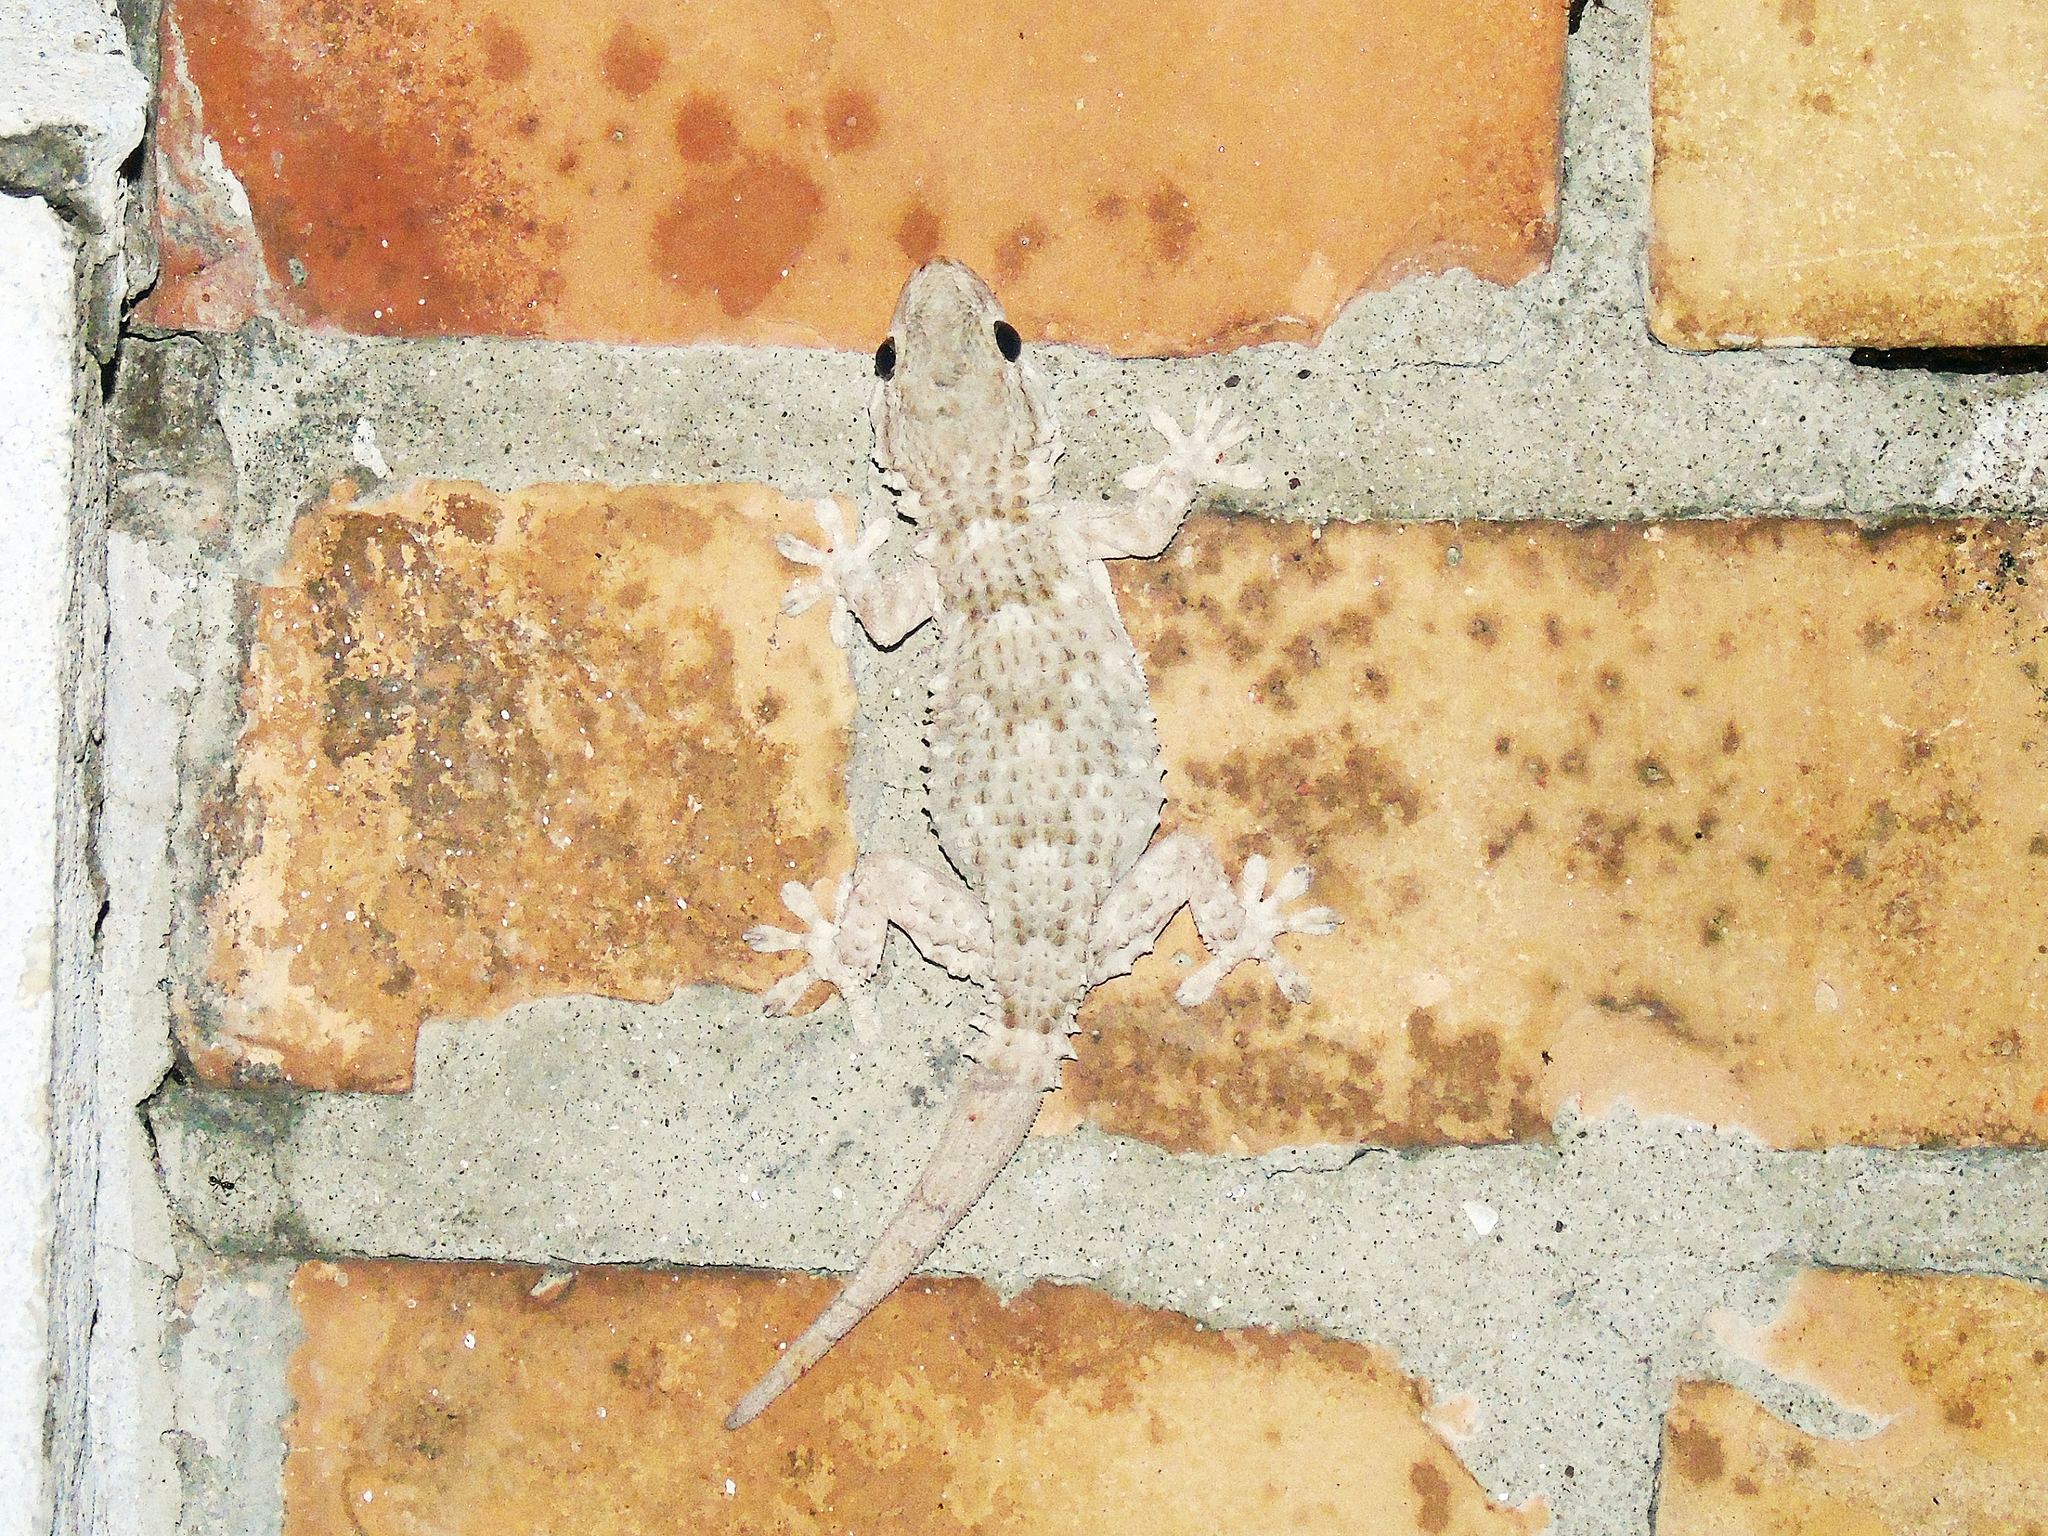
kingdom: Animalia
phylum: Chordata
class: Squamata
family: Phyllodactylidae
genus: Tarentola
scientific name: Tarentola mauritanica
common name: Moorish gecko
